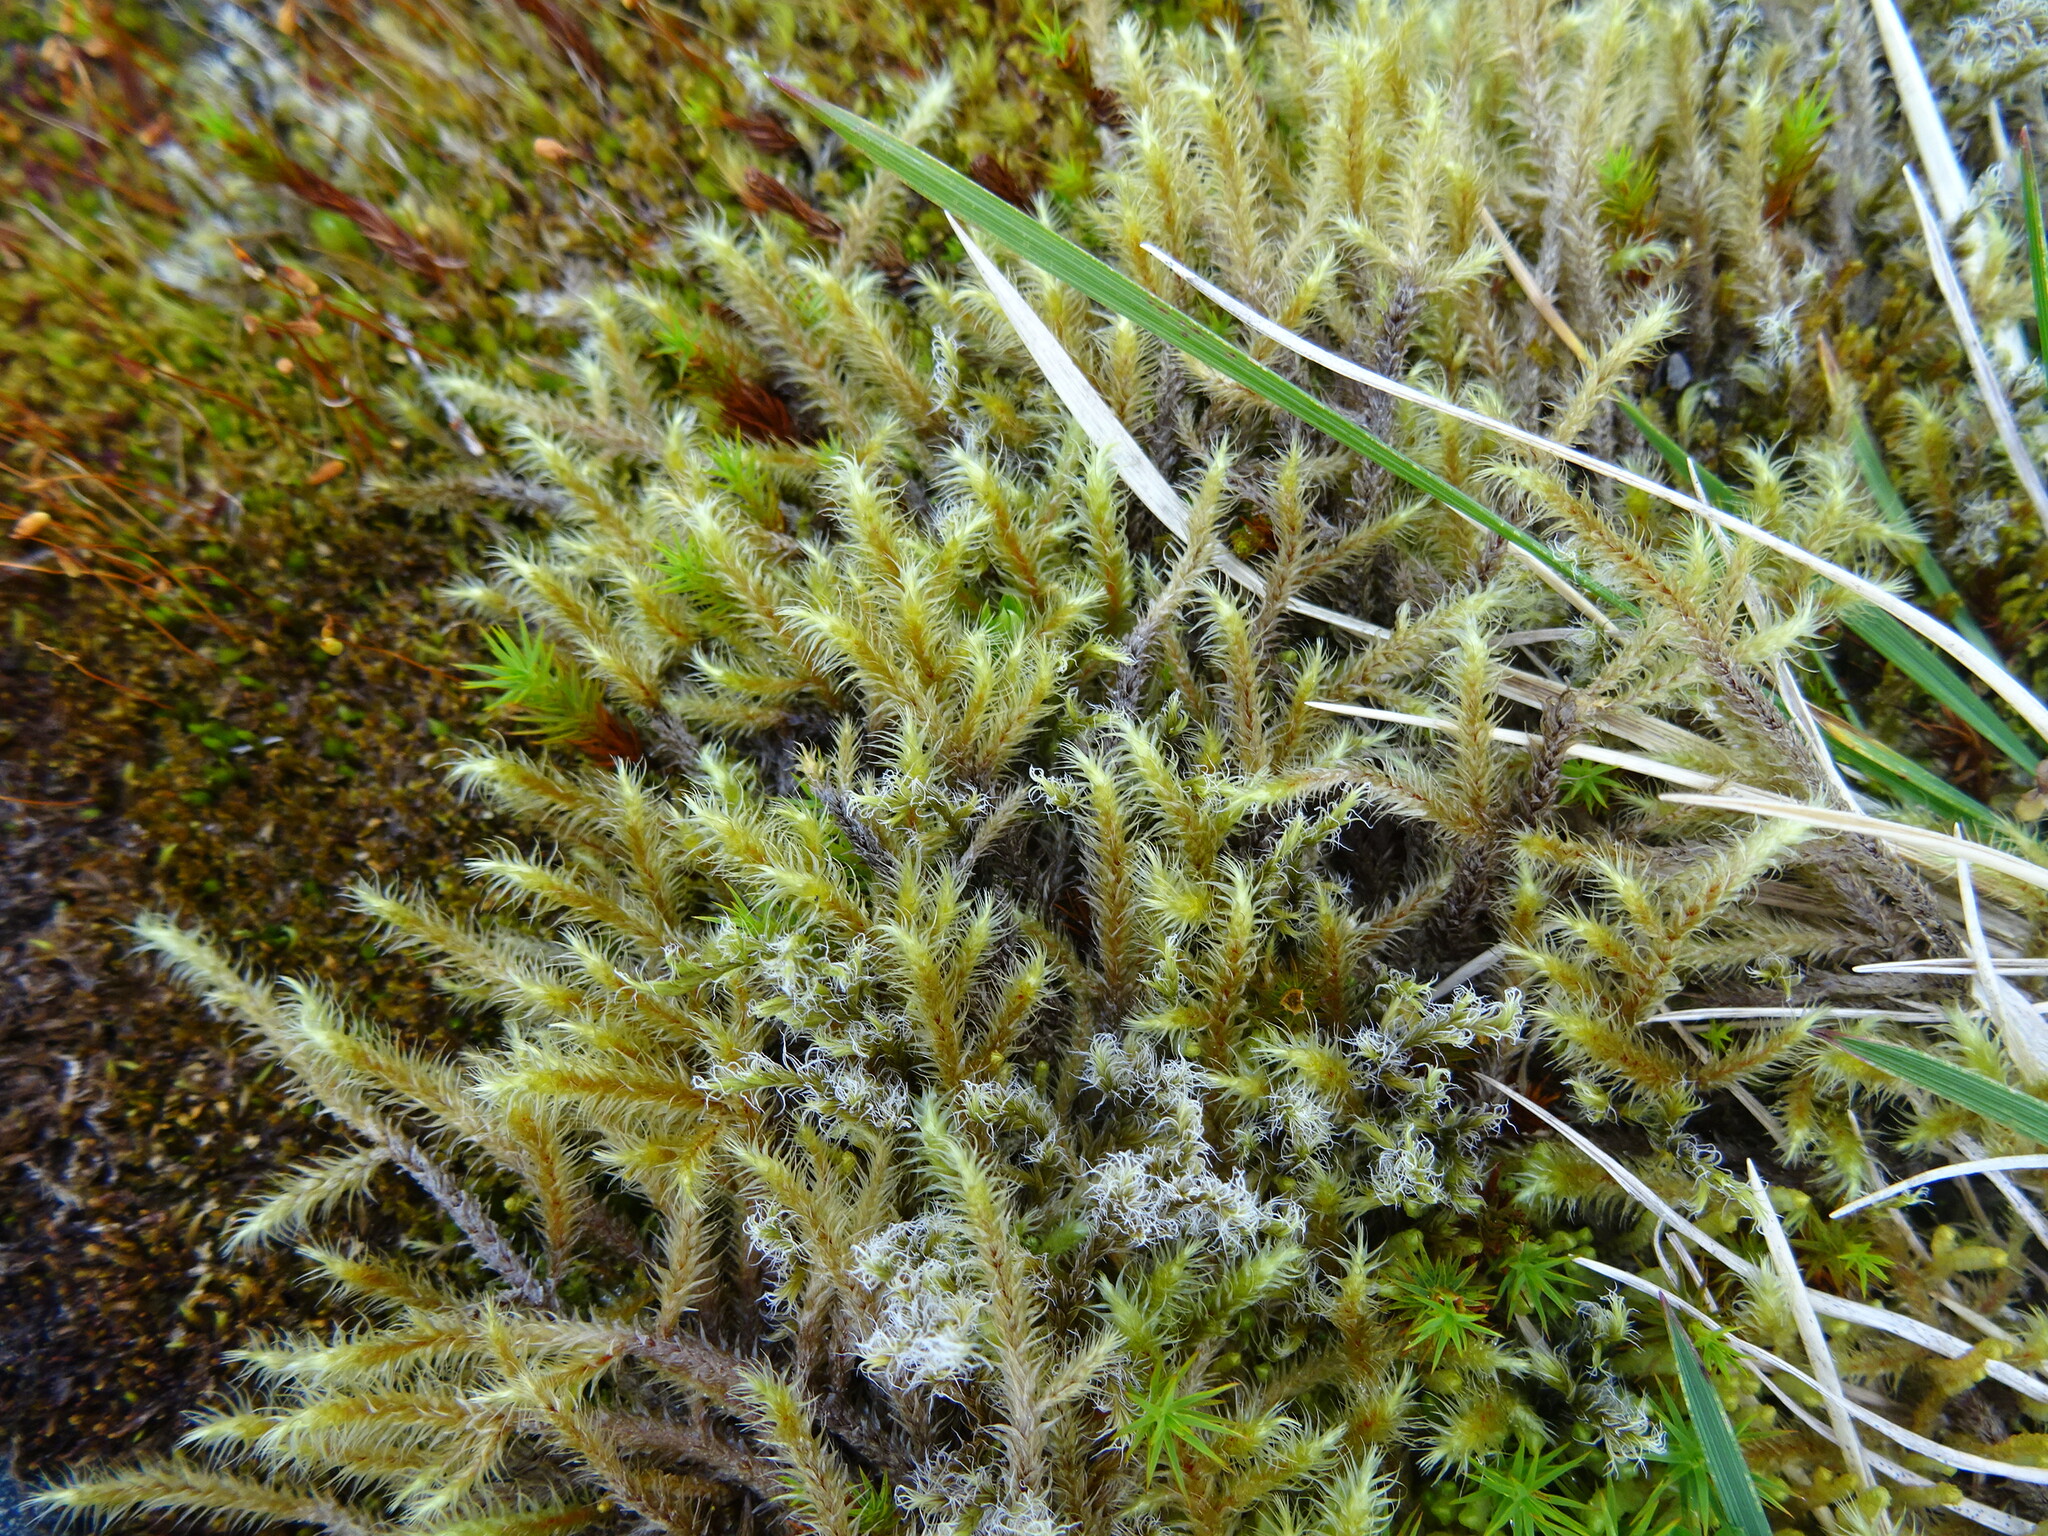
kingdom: Plantae
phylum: Bryophyta
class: Bryopsida
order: Hypnales
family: Hylocomiaceae
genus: Rhytidiadelphus
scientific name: Rhytidiadelphus loreus
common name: Lanky moss
